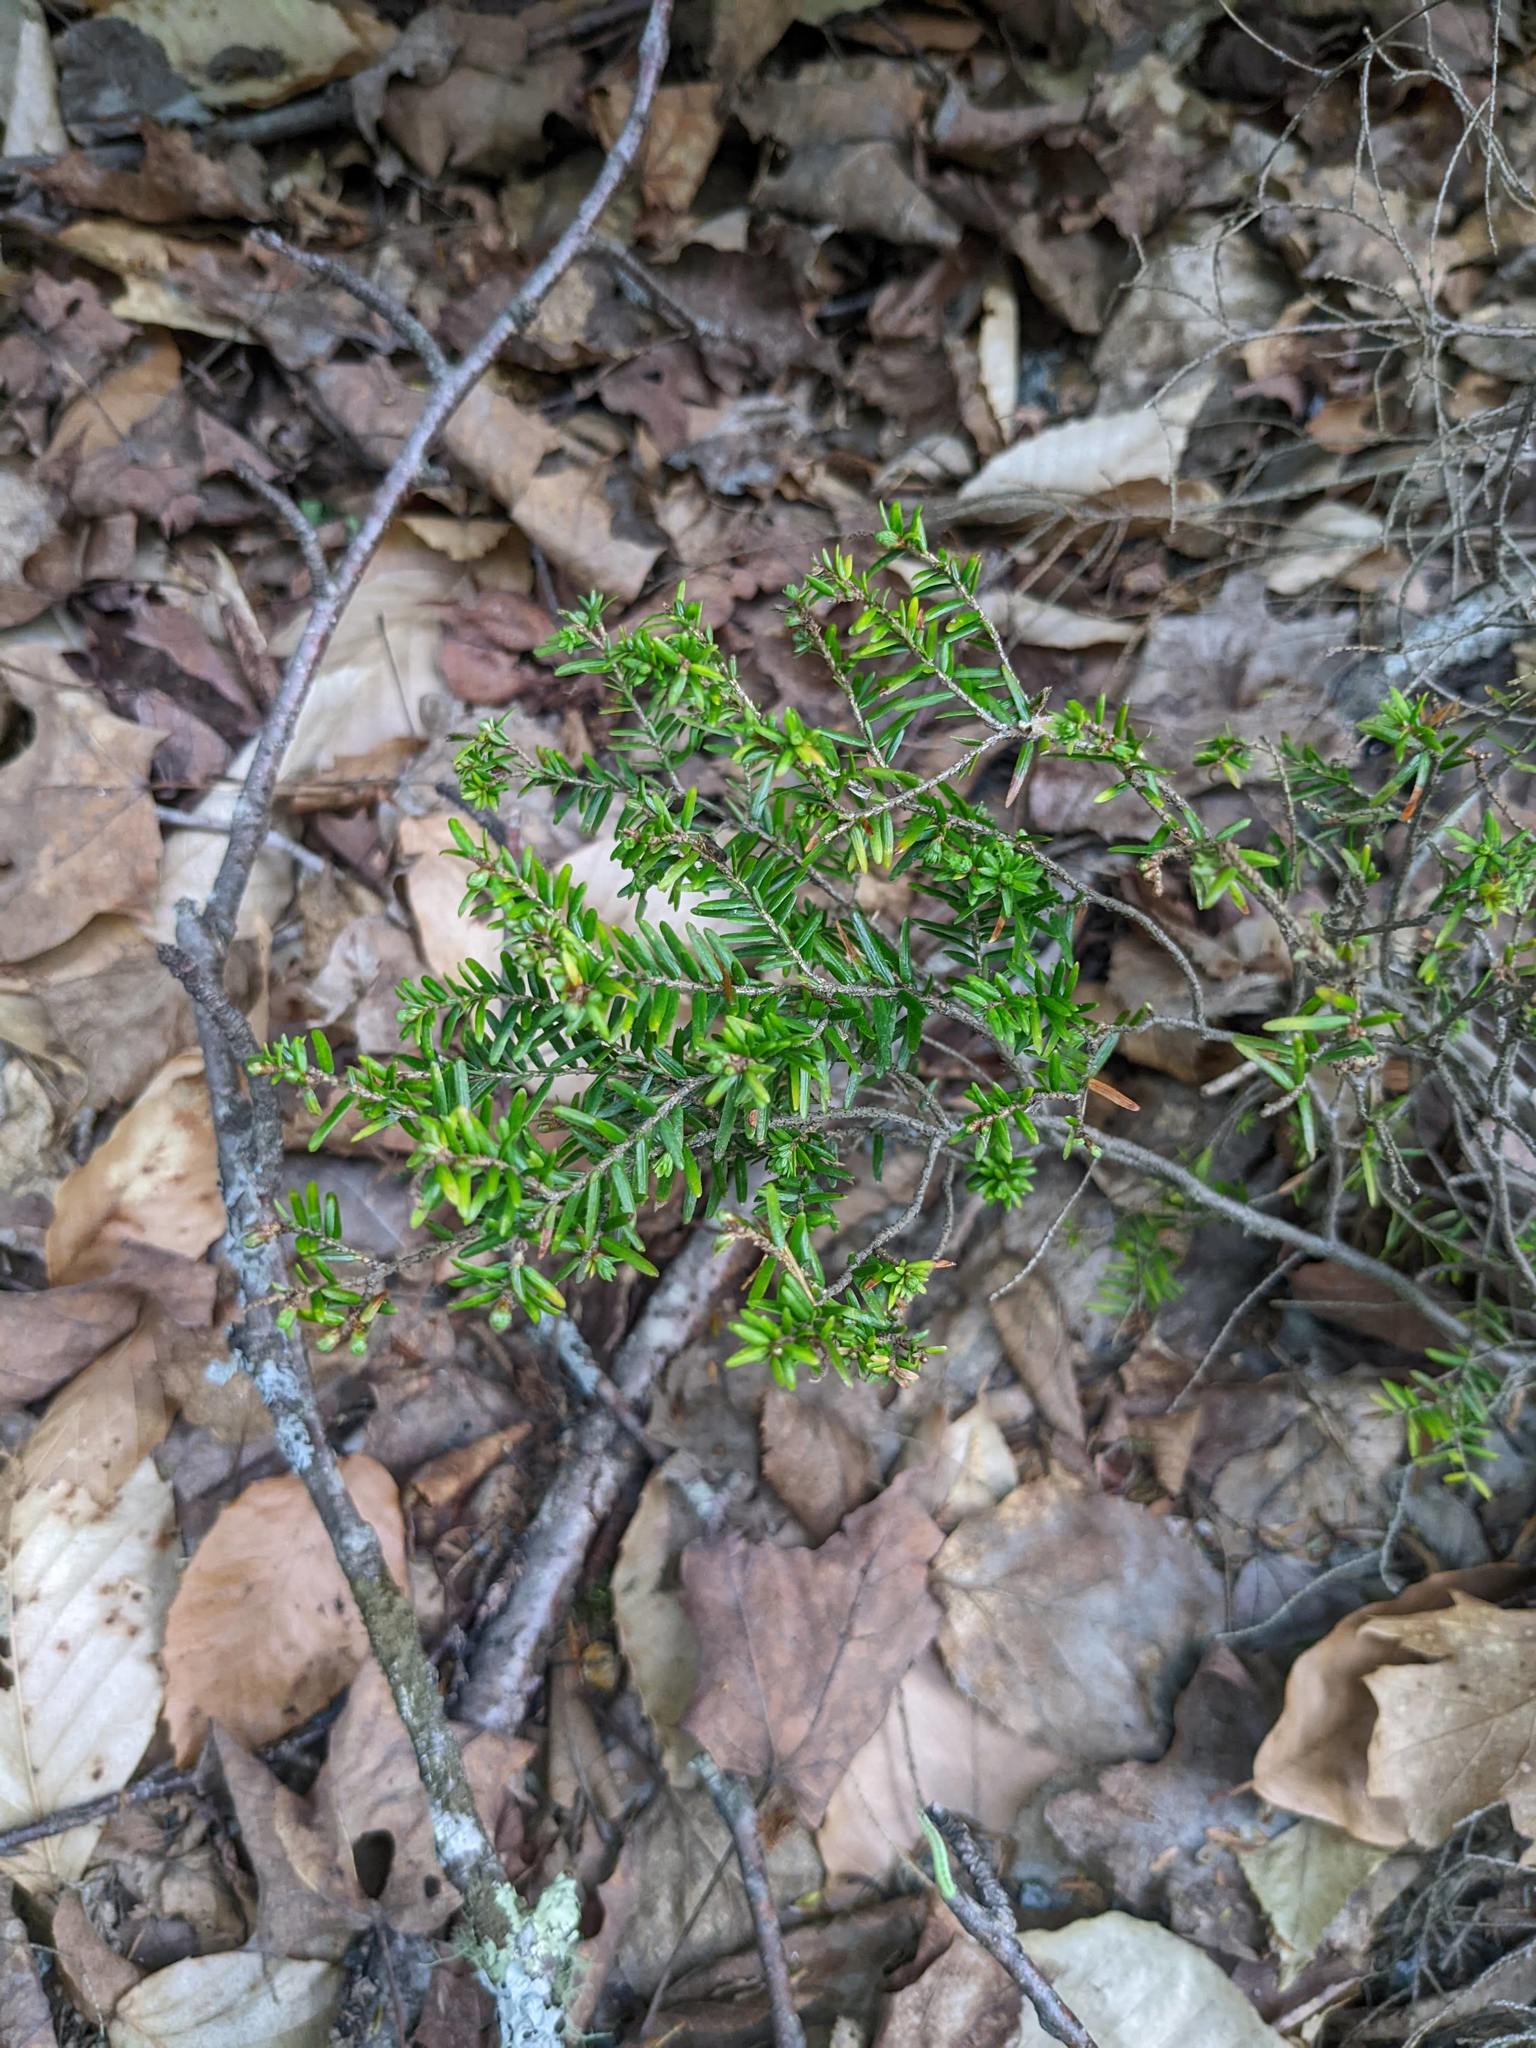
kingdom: Plantae
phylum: Tracheophyta
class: Pinopsida
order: Pinales
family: Pinaceae
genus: Tsuga
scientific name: Tsuga canadensis
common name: Eastern hemlock
